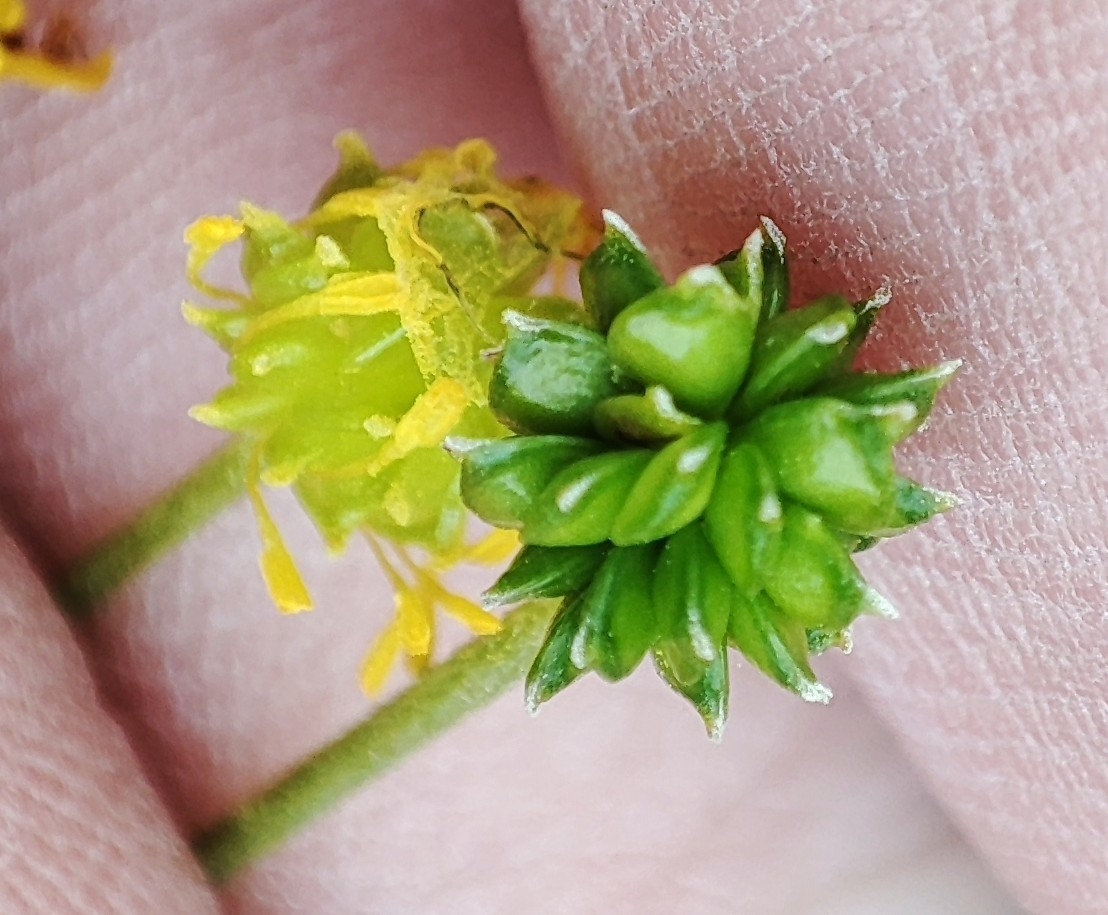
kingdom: Plantae
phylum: Tracheophyta
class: Magnoliopsida
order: Ranunculales
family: Ranunculaceae
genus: Ranunculus
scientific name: Ranunculus acris
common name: Meadow buttercup
